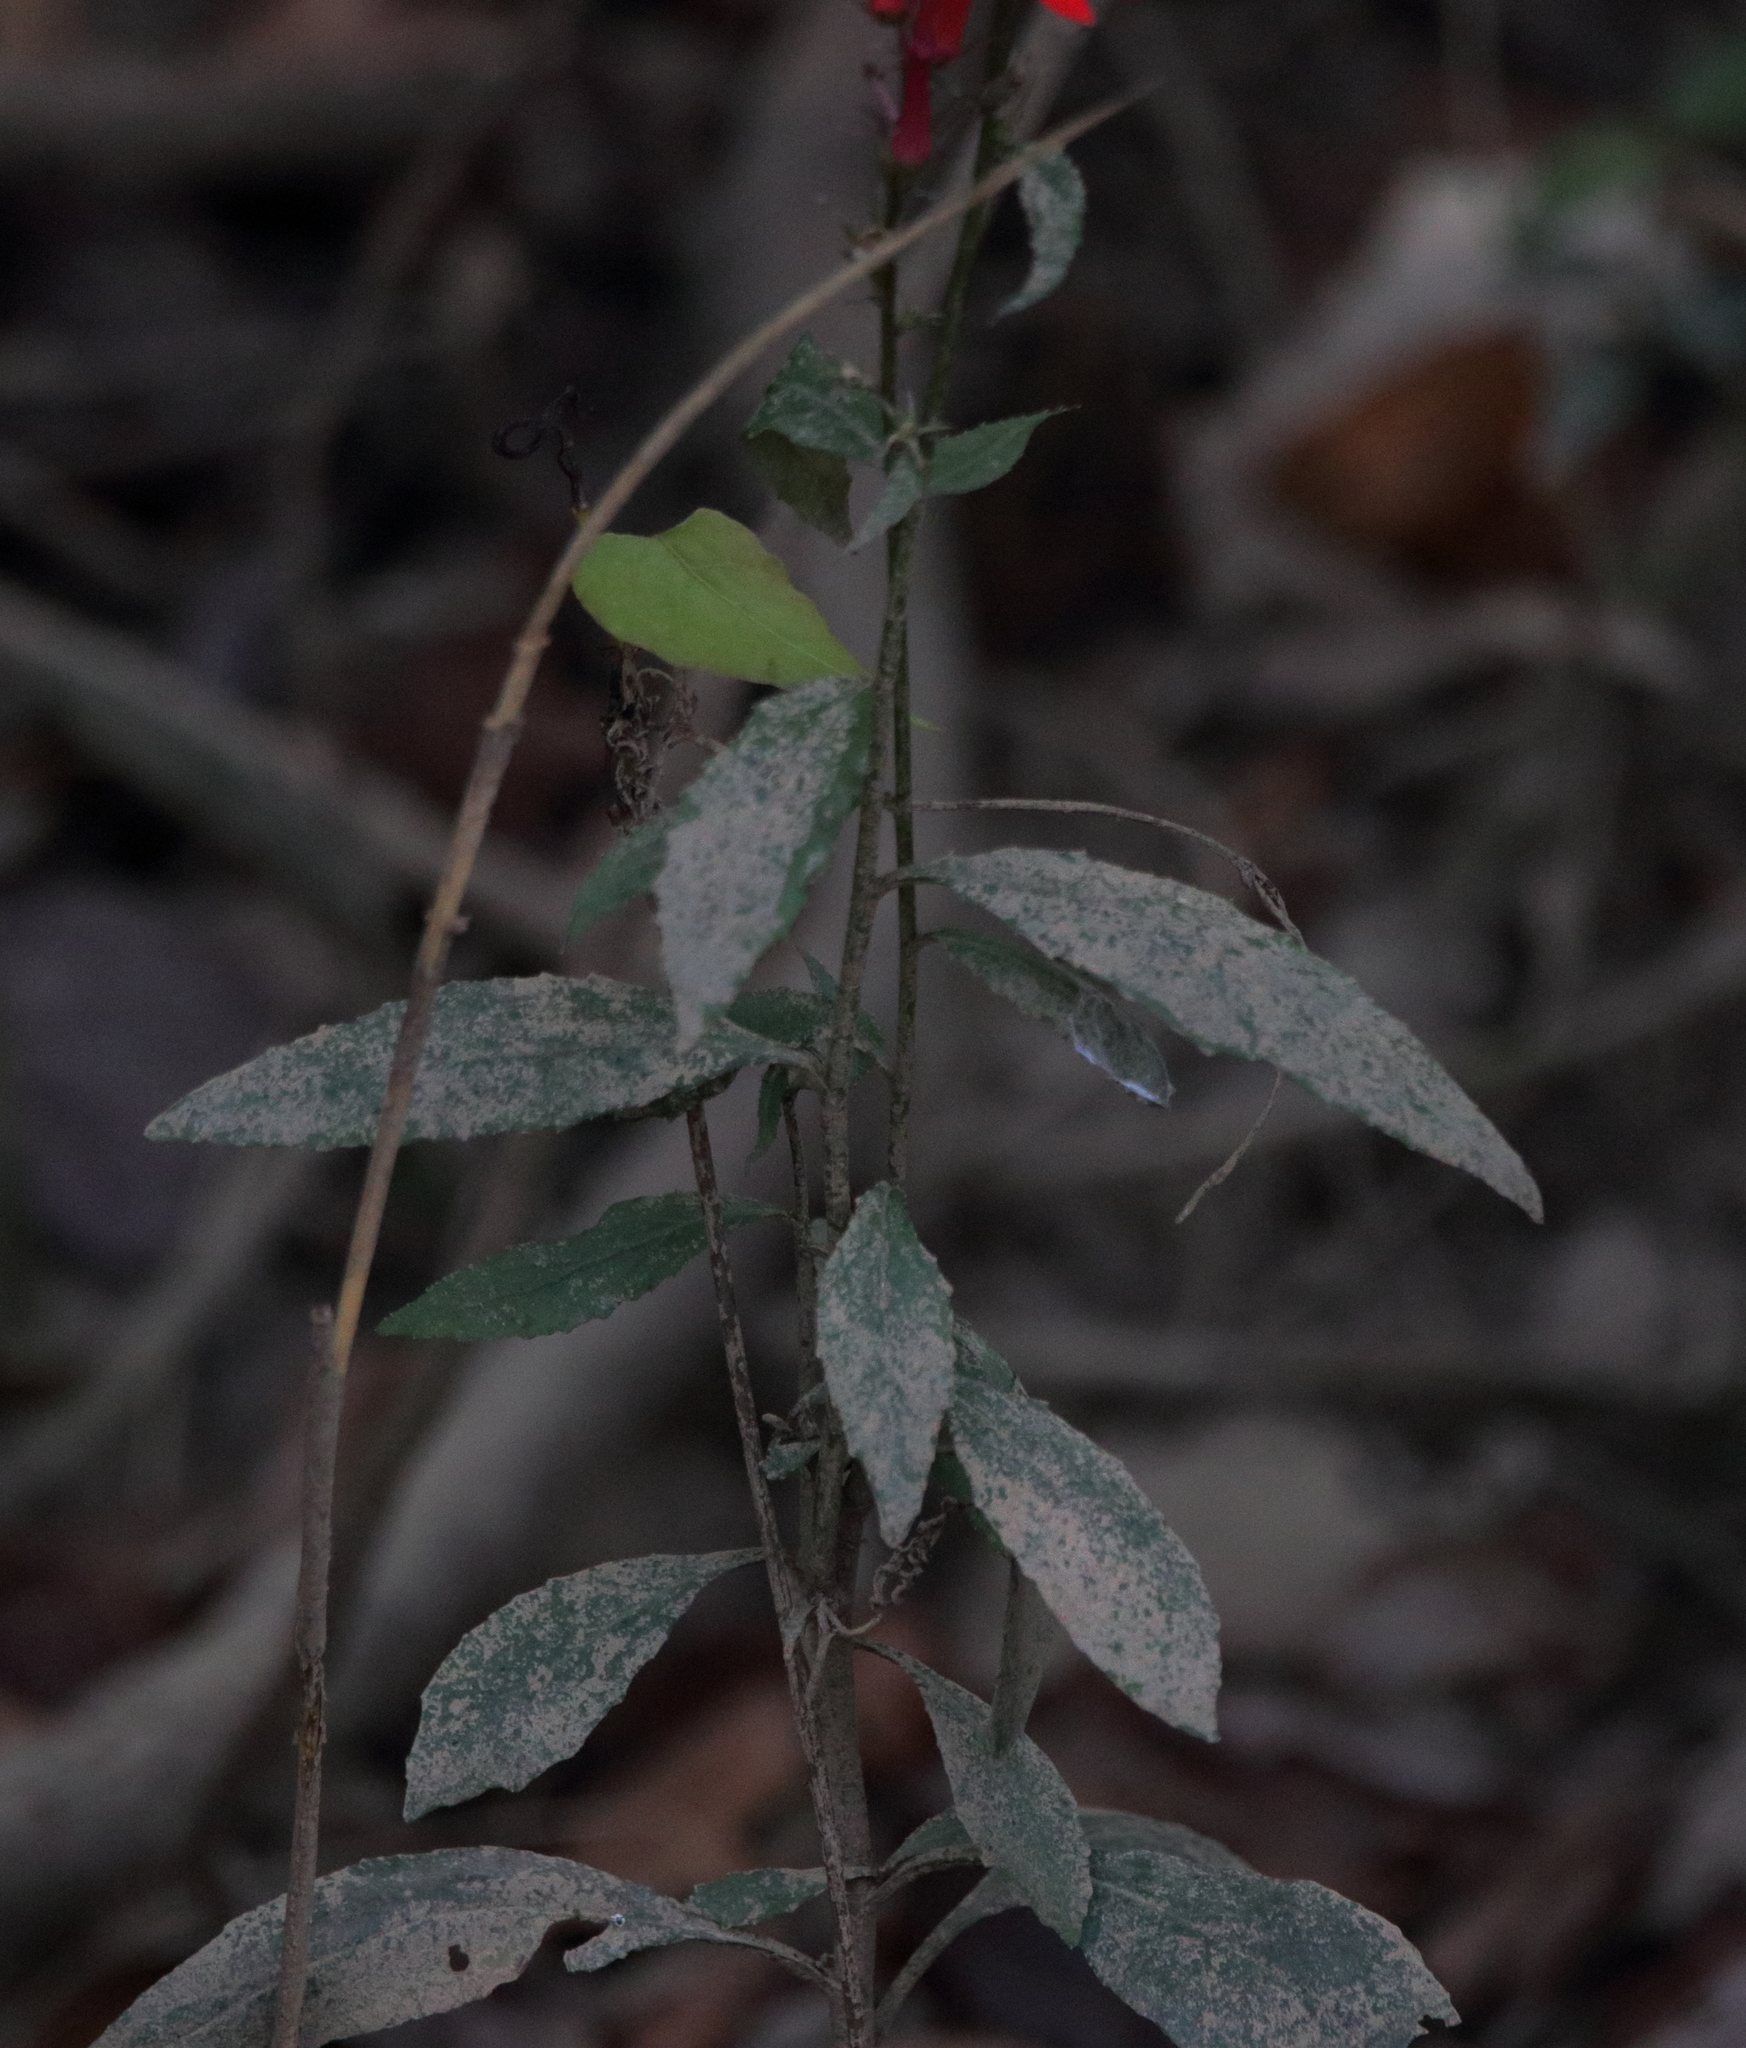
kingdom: Plantae
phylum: Tracheophyta
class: Magnoliopsida
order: Asterales
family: Campanulaceae
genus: Lobelia
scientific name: Lobelia cardinalis
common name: Cardinal flower
